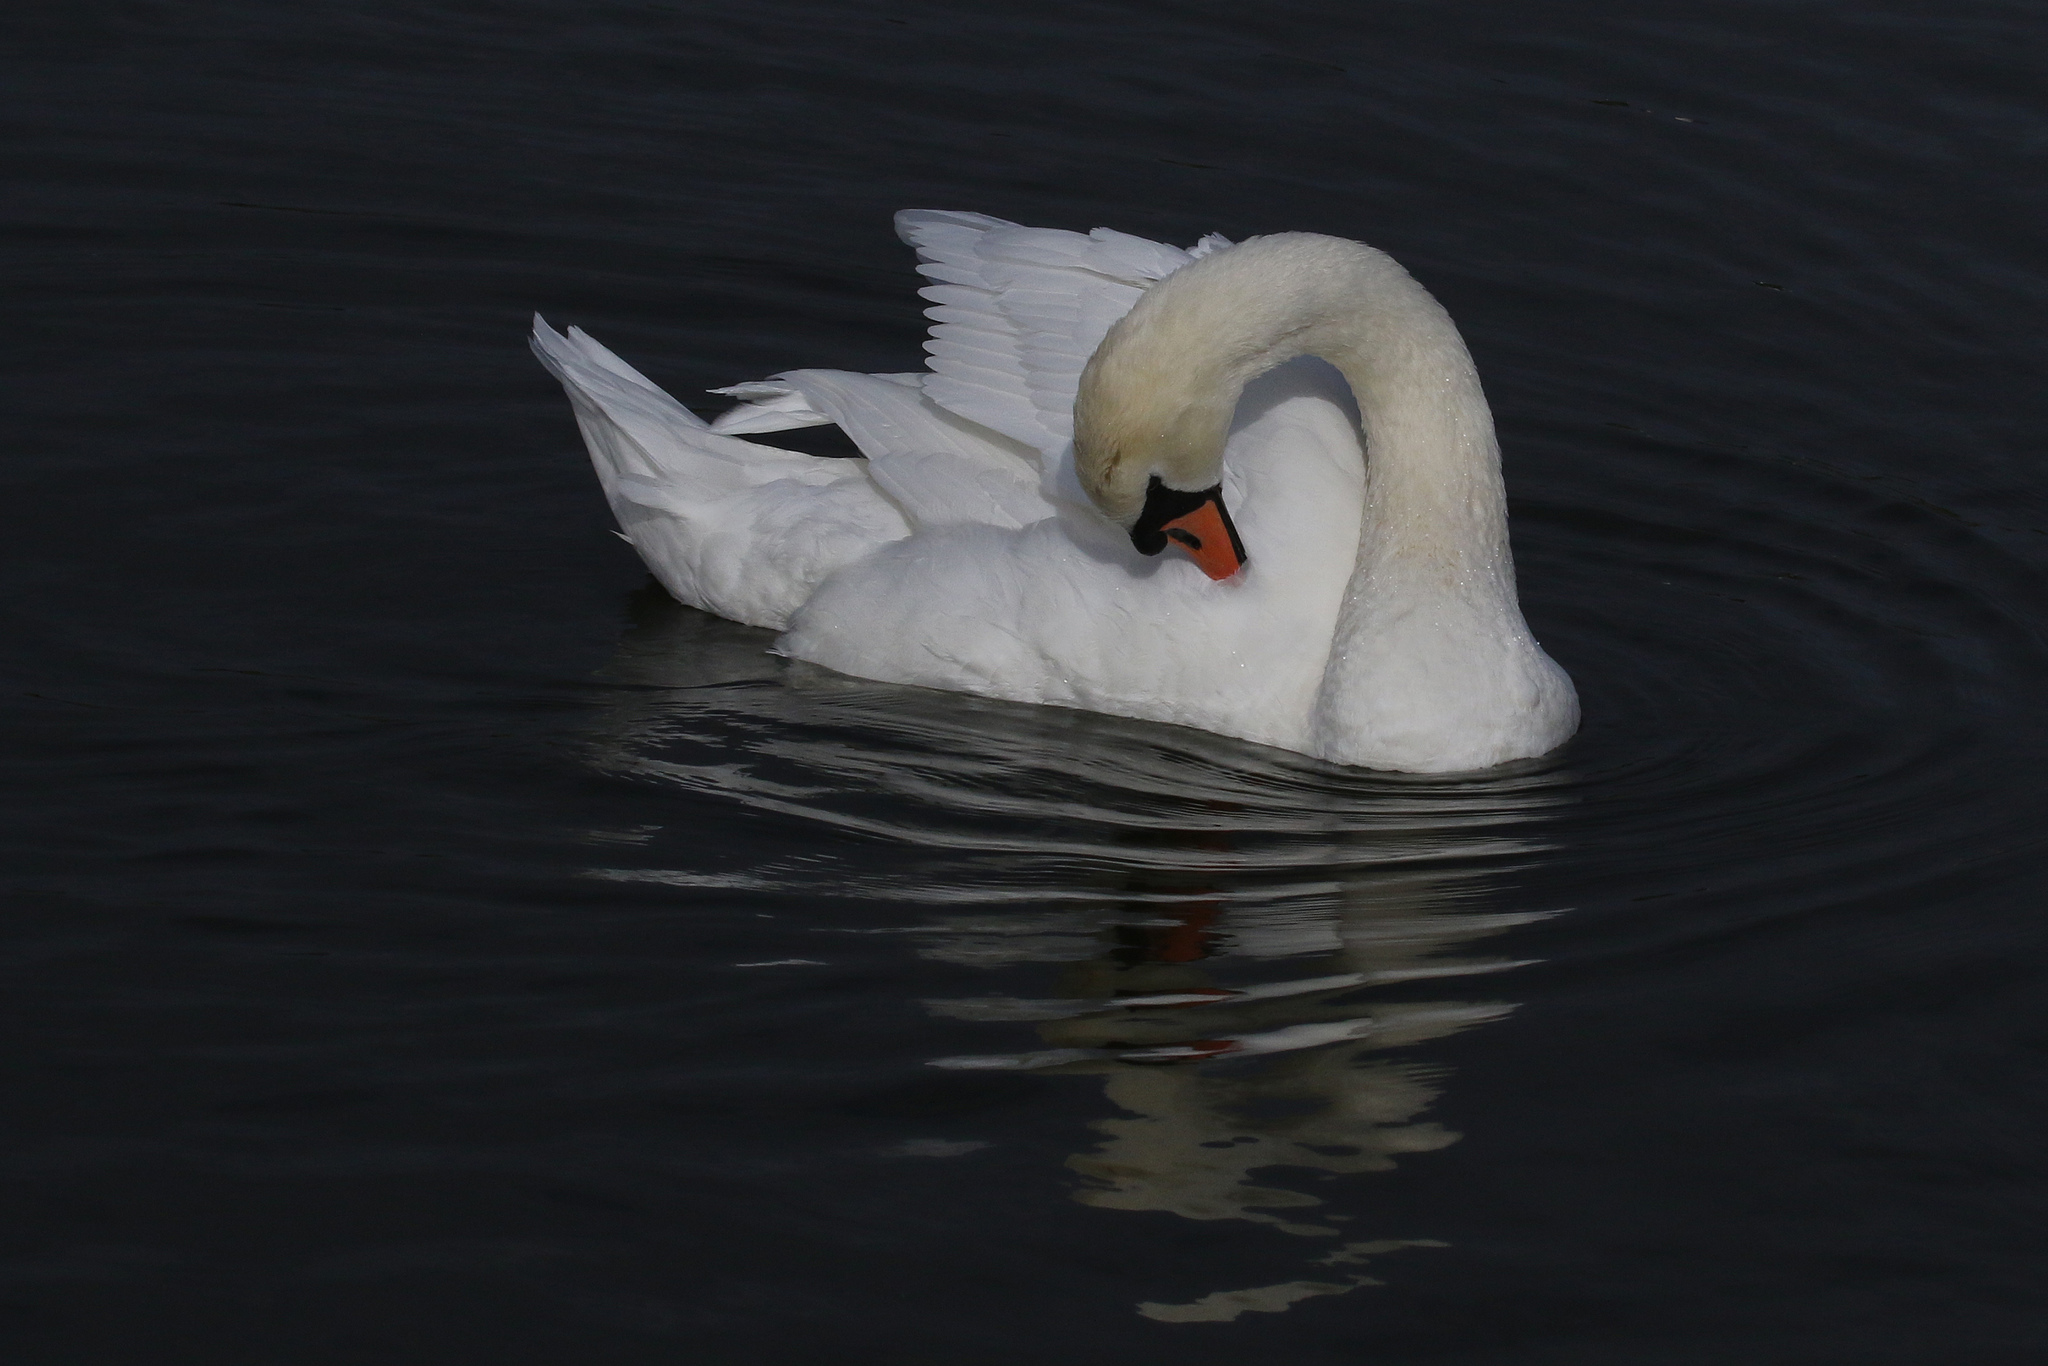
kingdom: Animalia
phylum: Chordata
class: Aves
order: Anseriformes
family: Anatidae
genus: Cygnus
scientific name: Cygnus olor
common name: Mute swan
